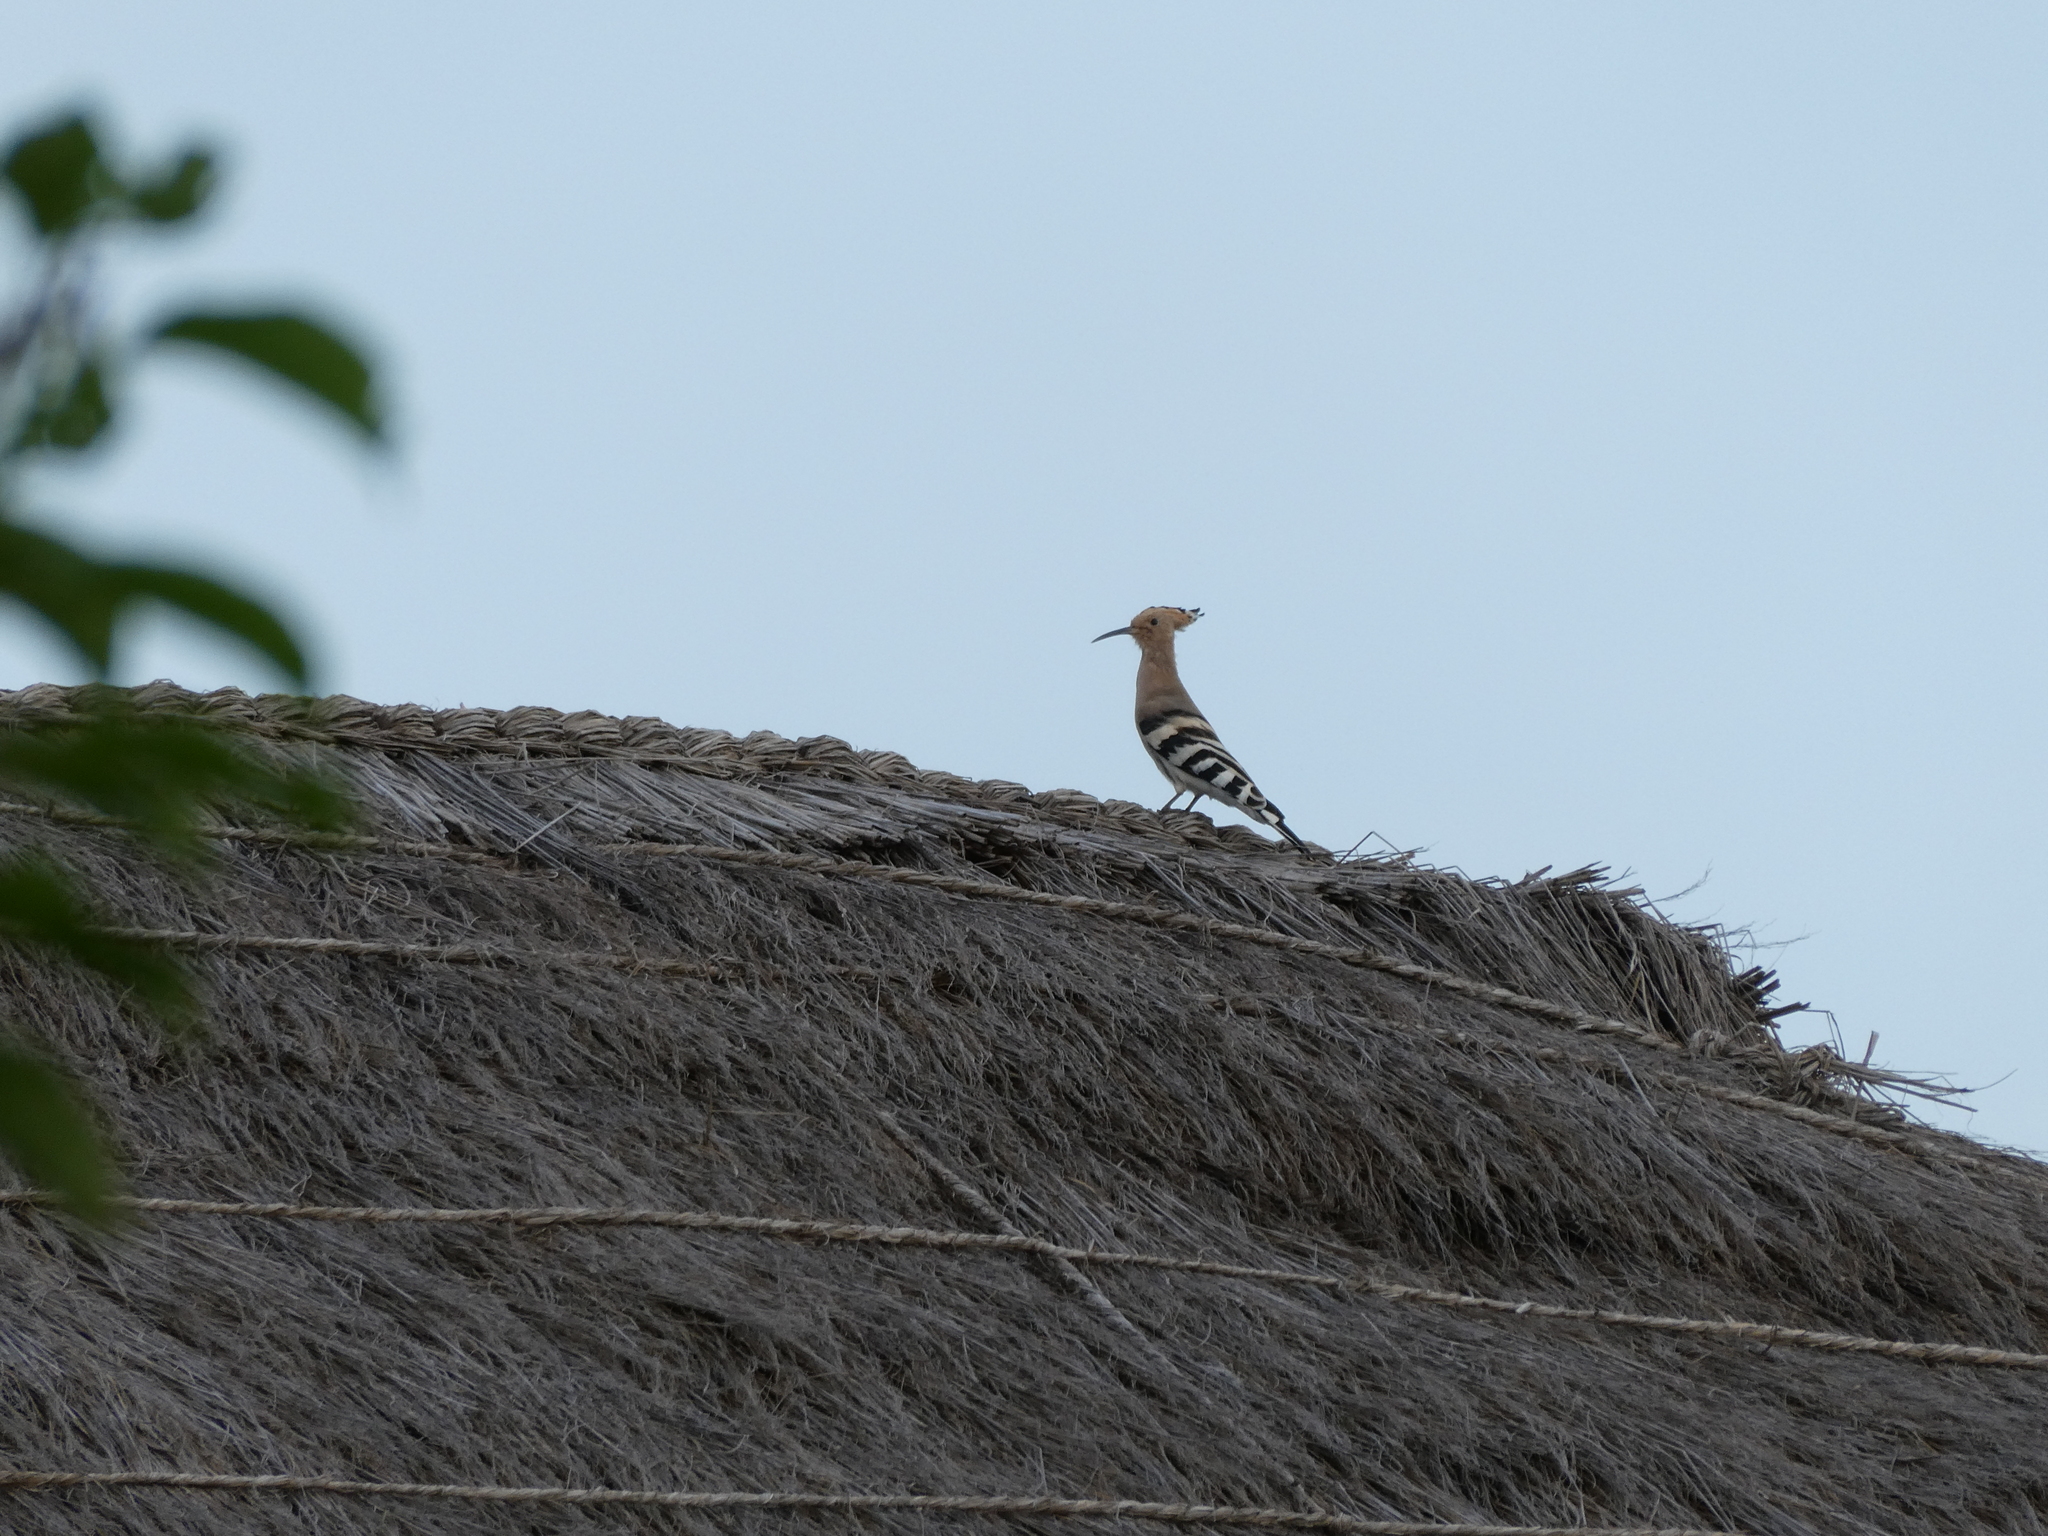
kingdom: Animalia
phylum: Chordata
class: Aves
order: Bucerotiformes
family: Upupidae
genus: Upupa
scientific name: Upupa epops
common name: Eurasian hoopoe
